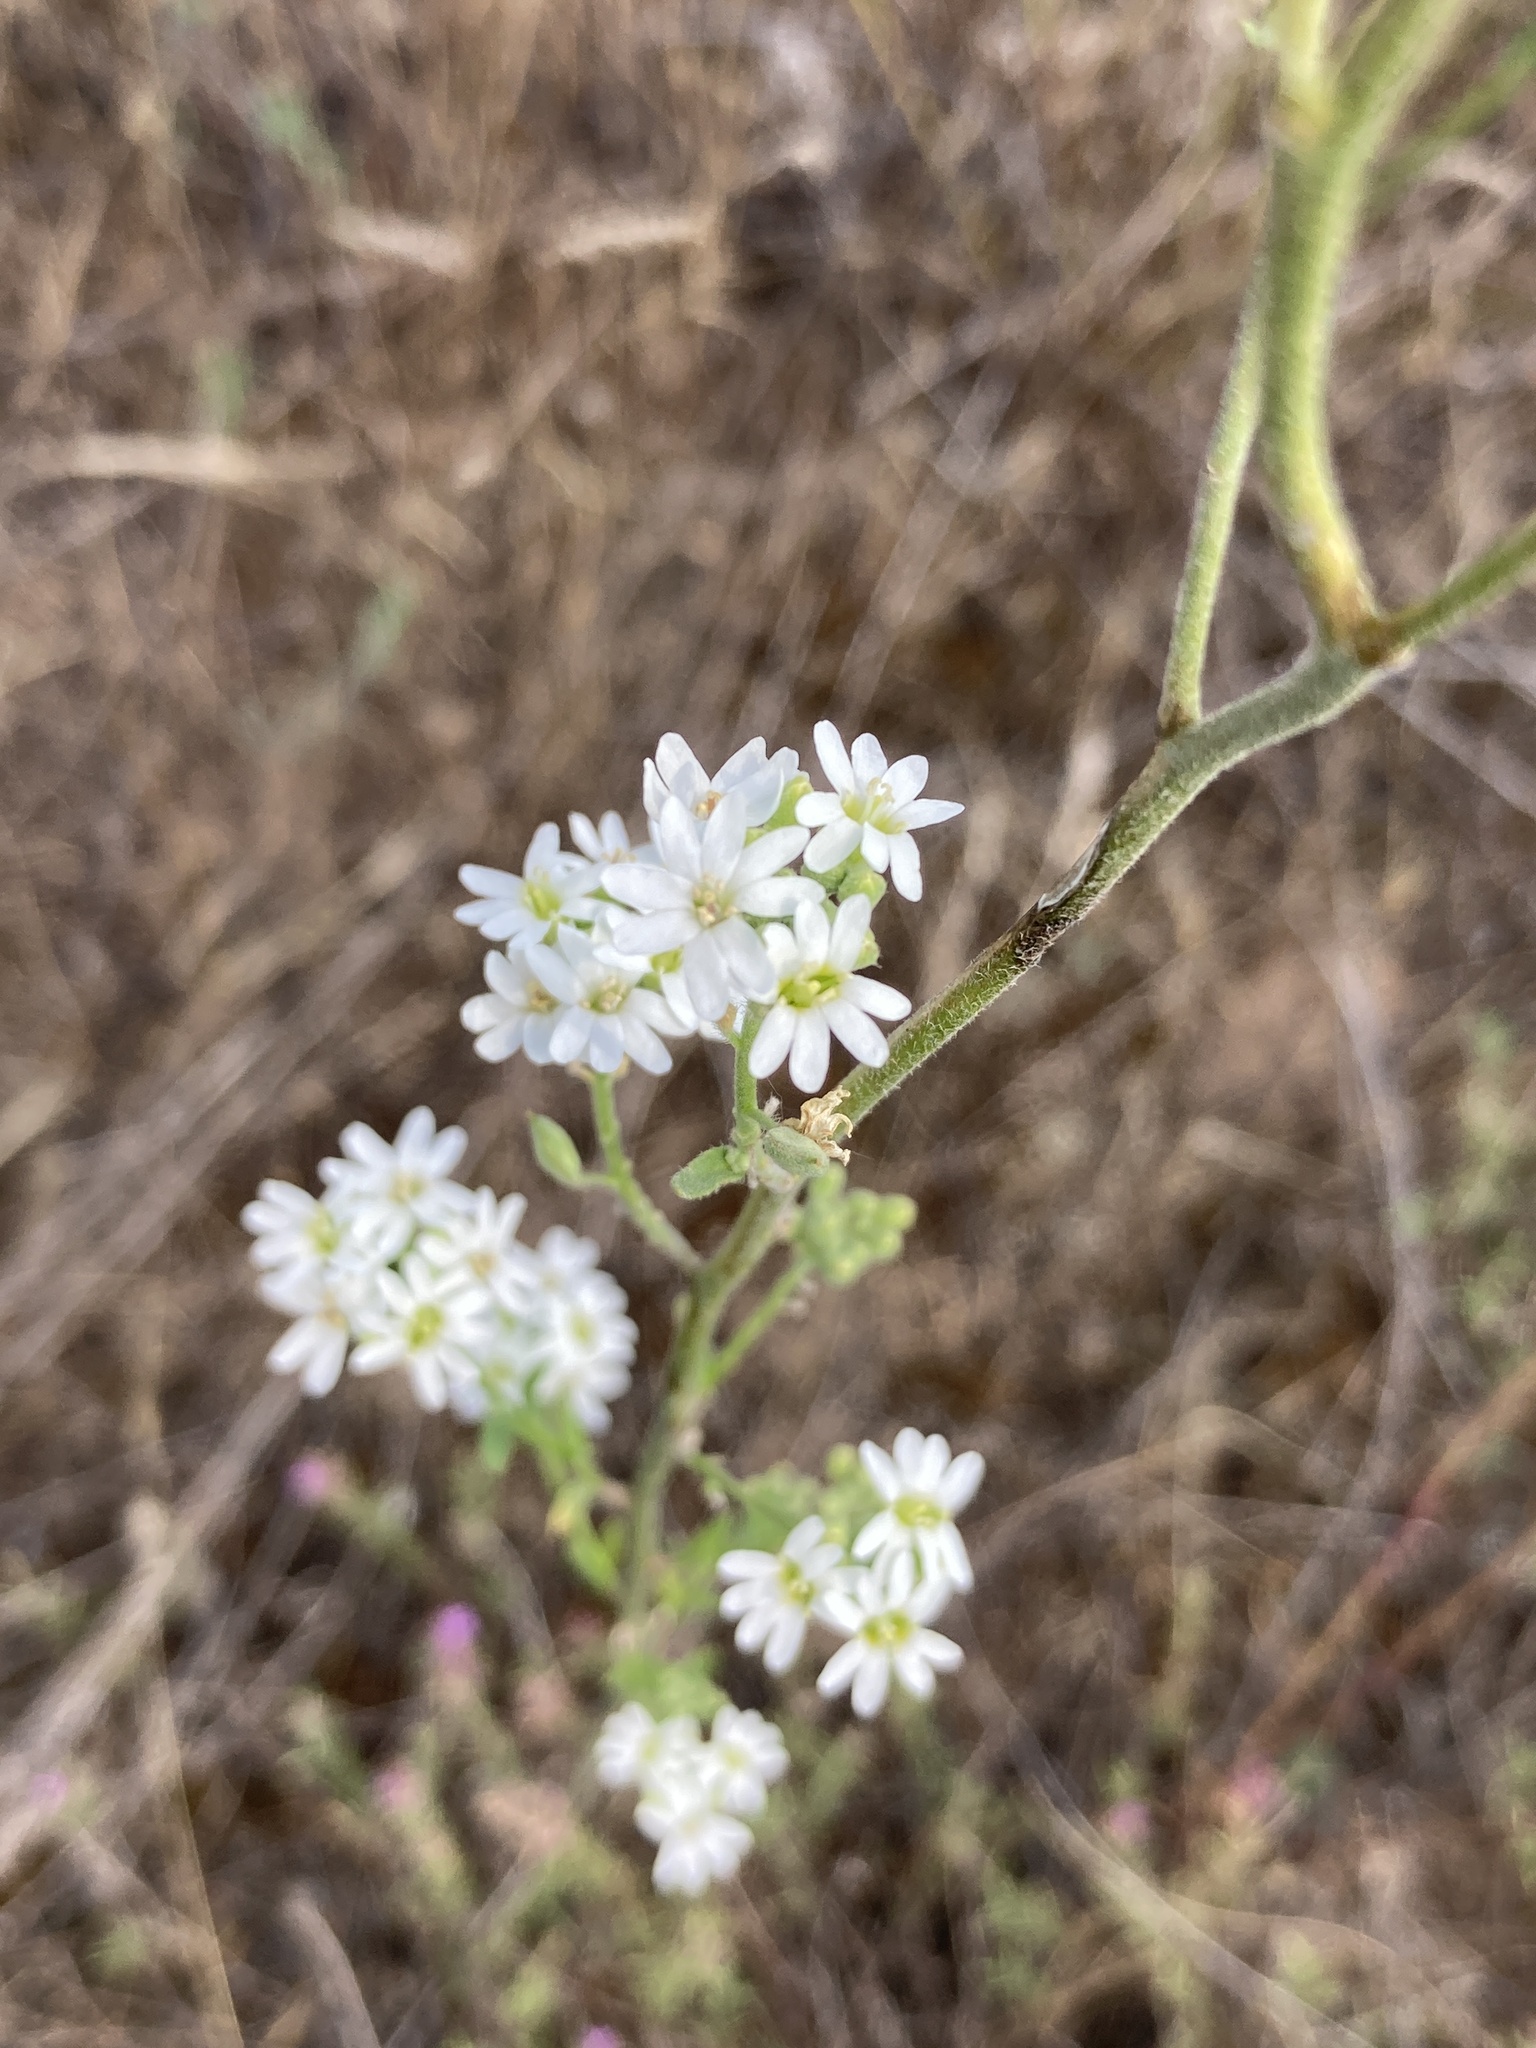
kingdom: Plantae
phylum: Tracheophyta
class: Magnoliopsida
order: Brassicales
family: Brassicaceae
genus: Berteroa
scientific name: Berteroa incana
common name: Hoary alison
